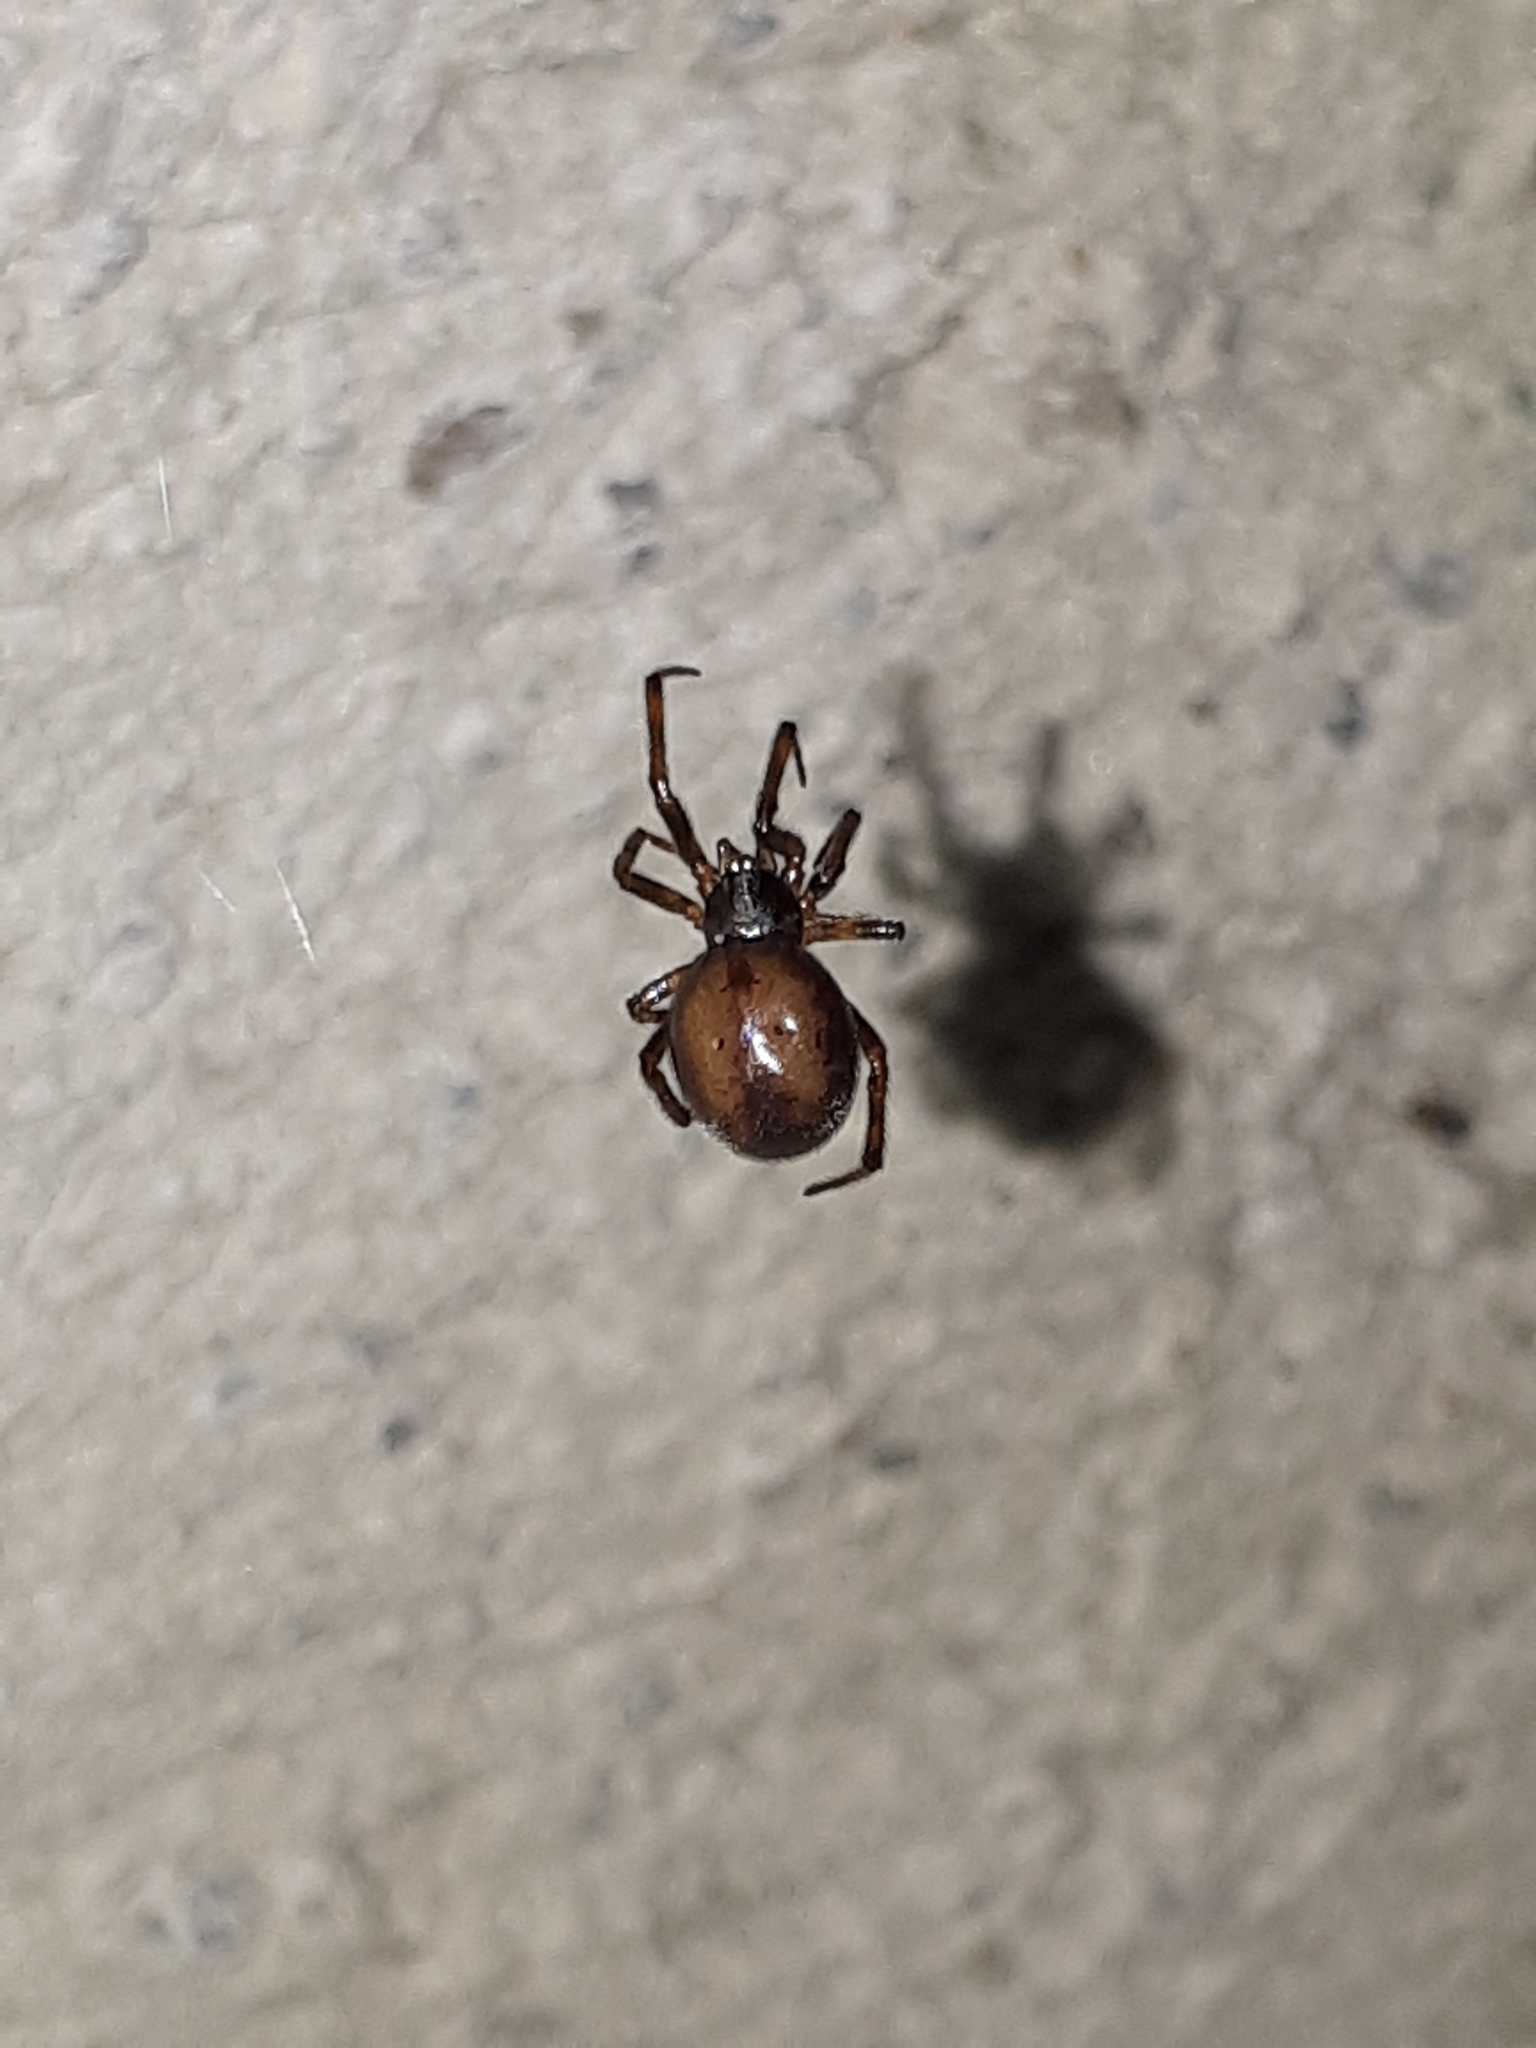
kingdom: Animalia
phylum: Arthropoda
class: Arachnida
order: Araneae
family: Theridiidae
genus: Steatoda
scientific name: Steatoda bipunctata
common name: False widow
